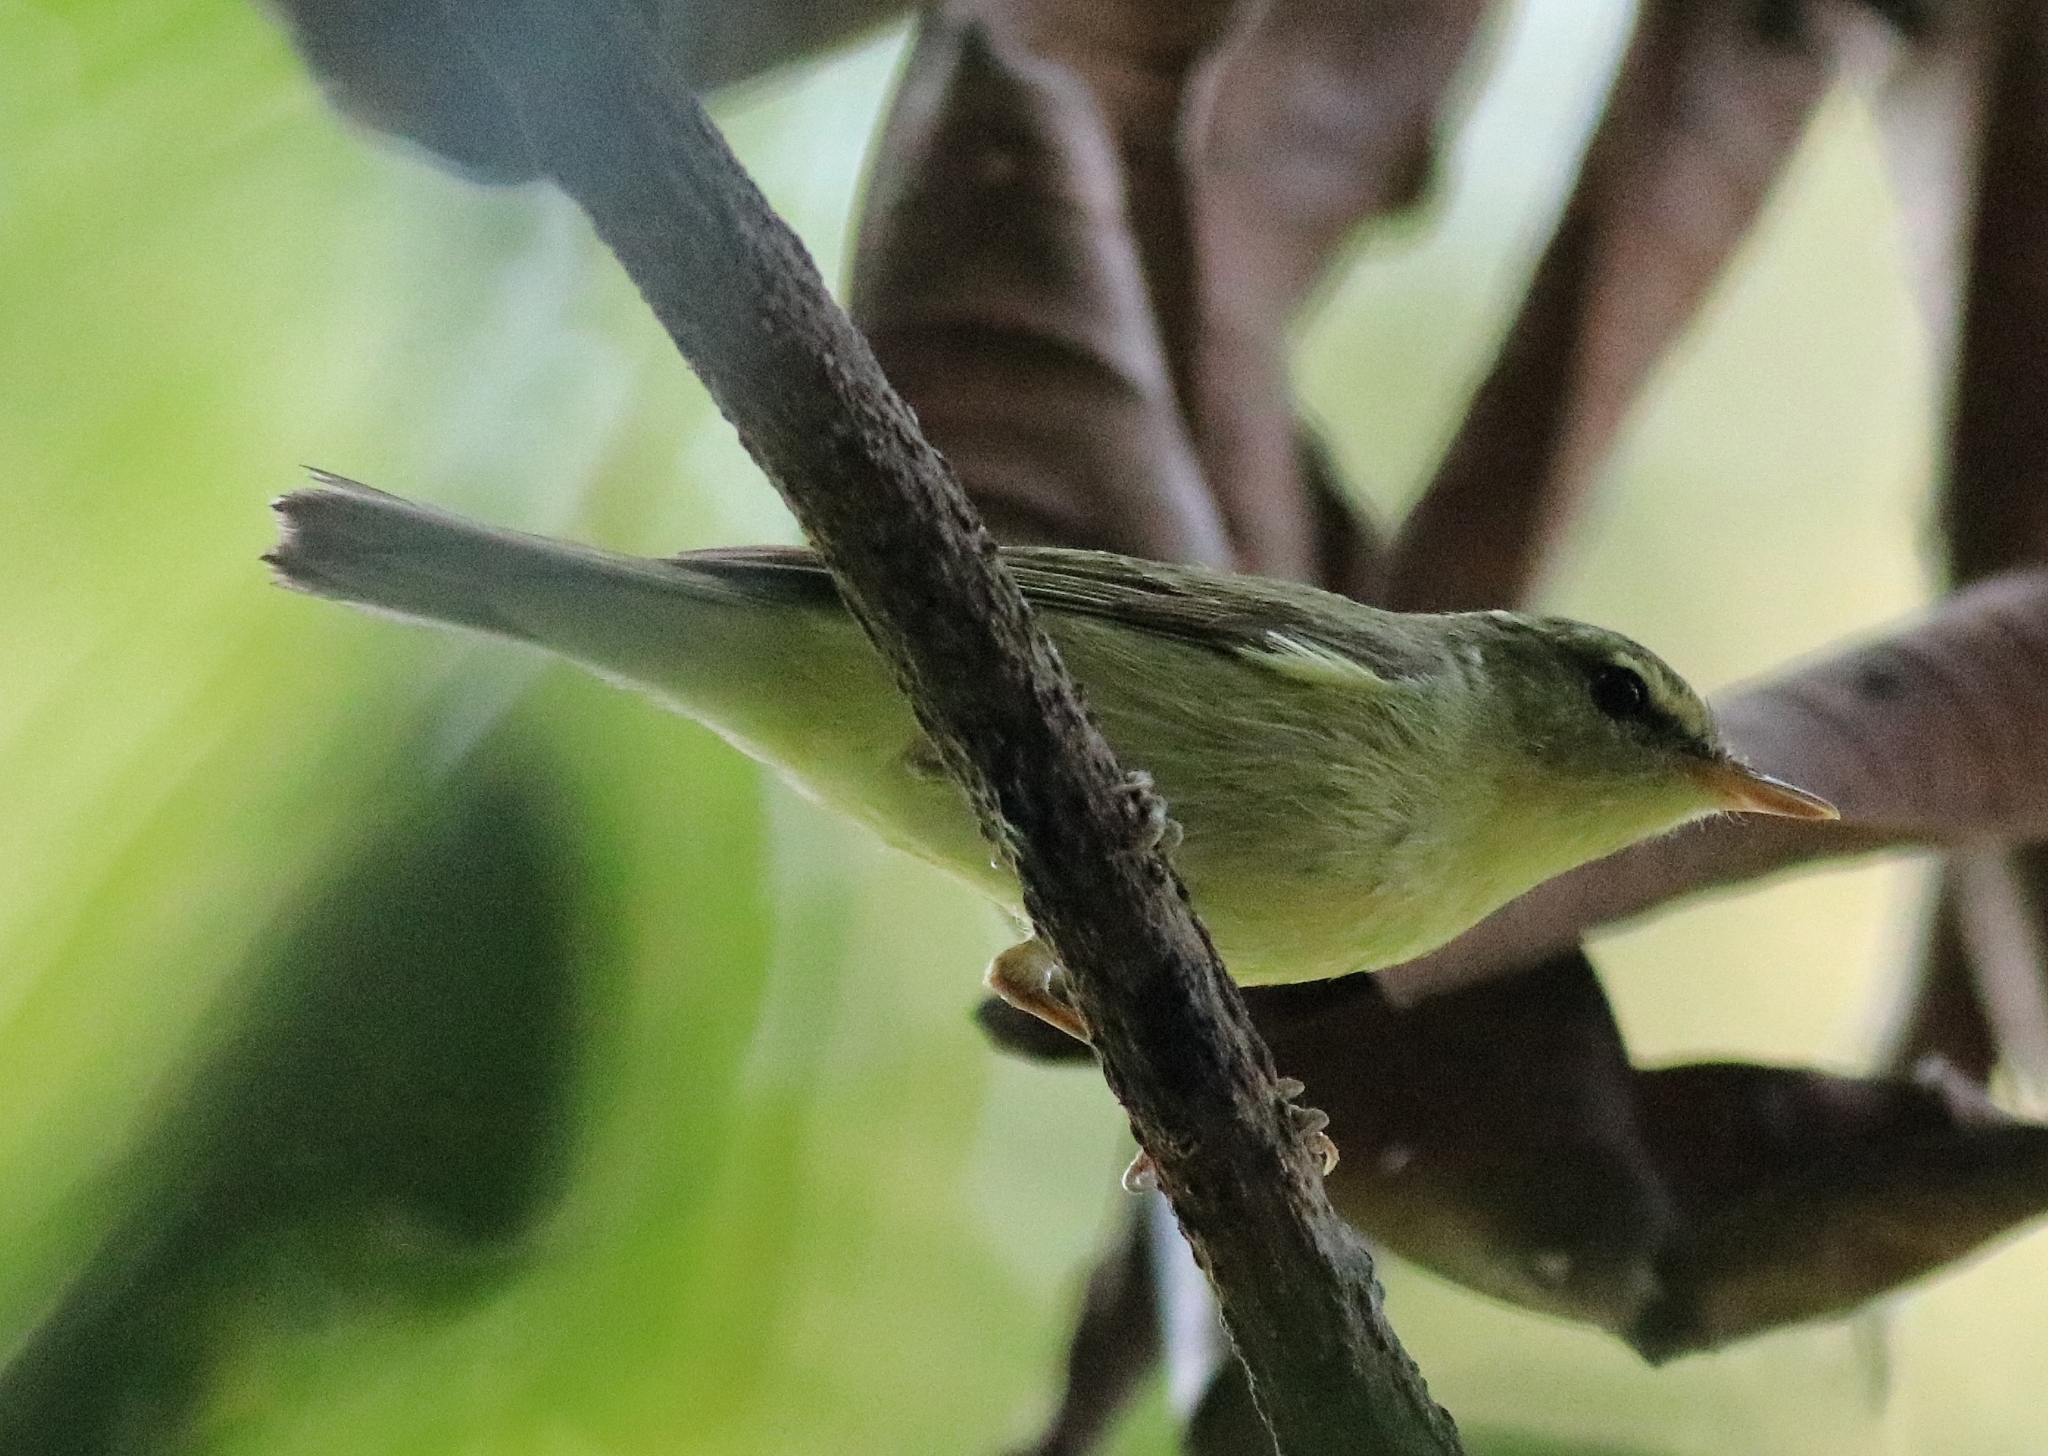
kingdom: Animalia
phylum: Chordata
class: Aves
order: Passeriformes
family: Phylloscopidae
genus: Phylloscopus
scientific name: Phylloscopus nitidus
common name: Green warbler
